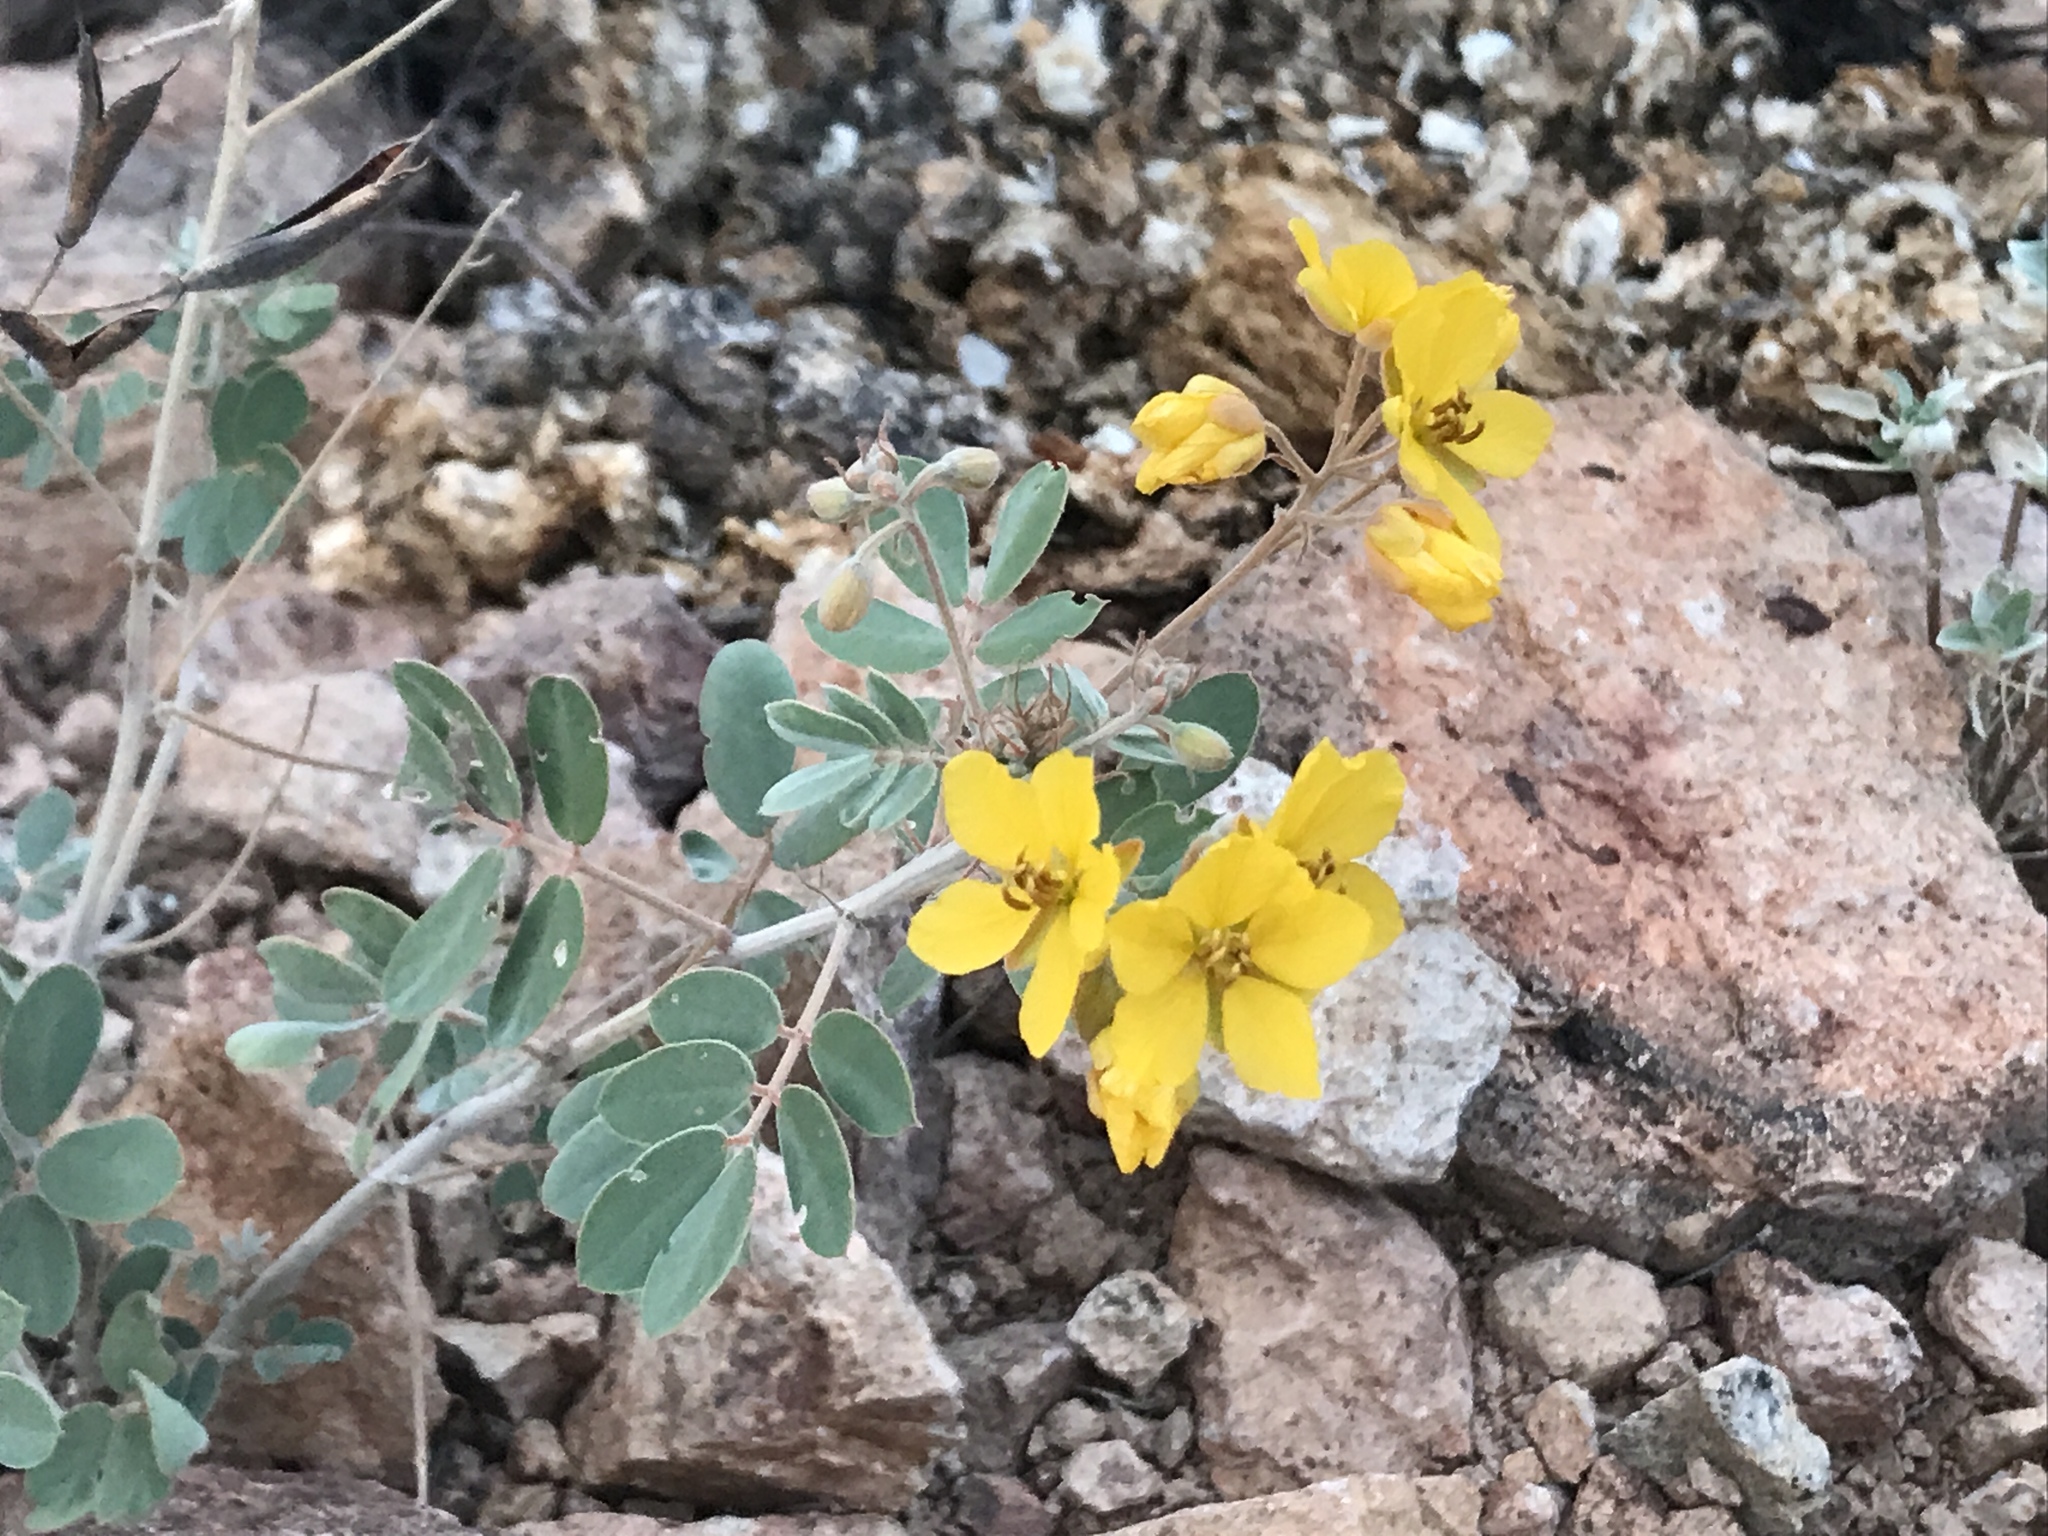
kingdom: Plantae
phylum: Tracheophyta
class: Magnoliopsida
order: Fabales
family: Fabaceae
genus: Senna
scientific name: Senna covesii
